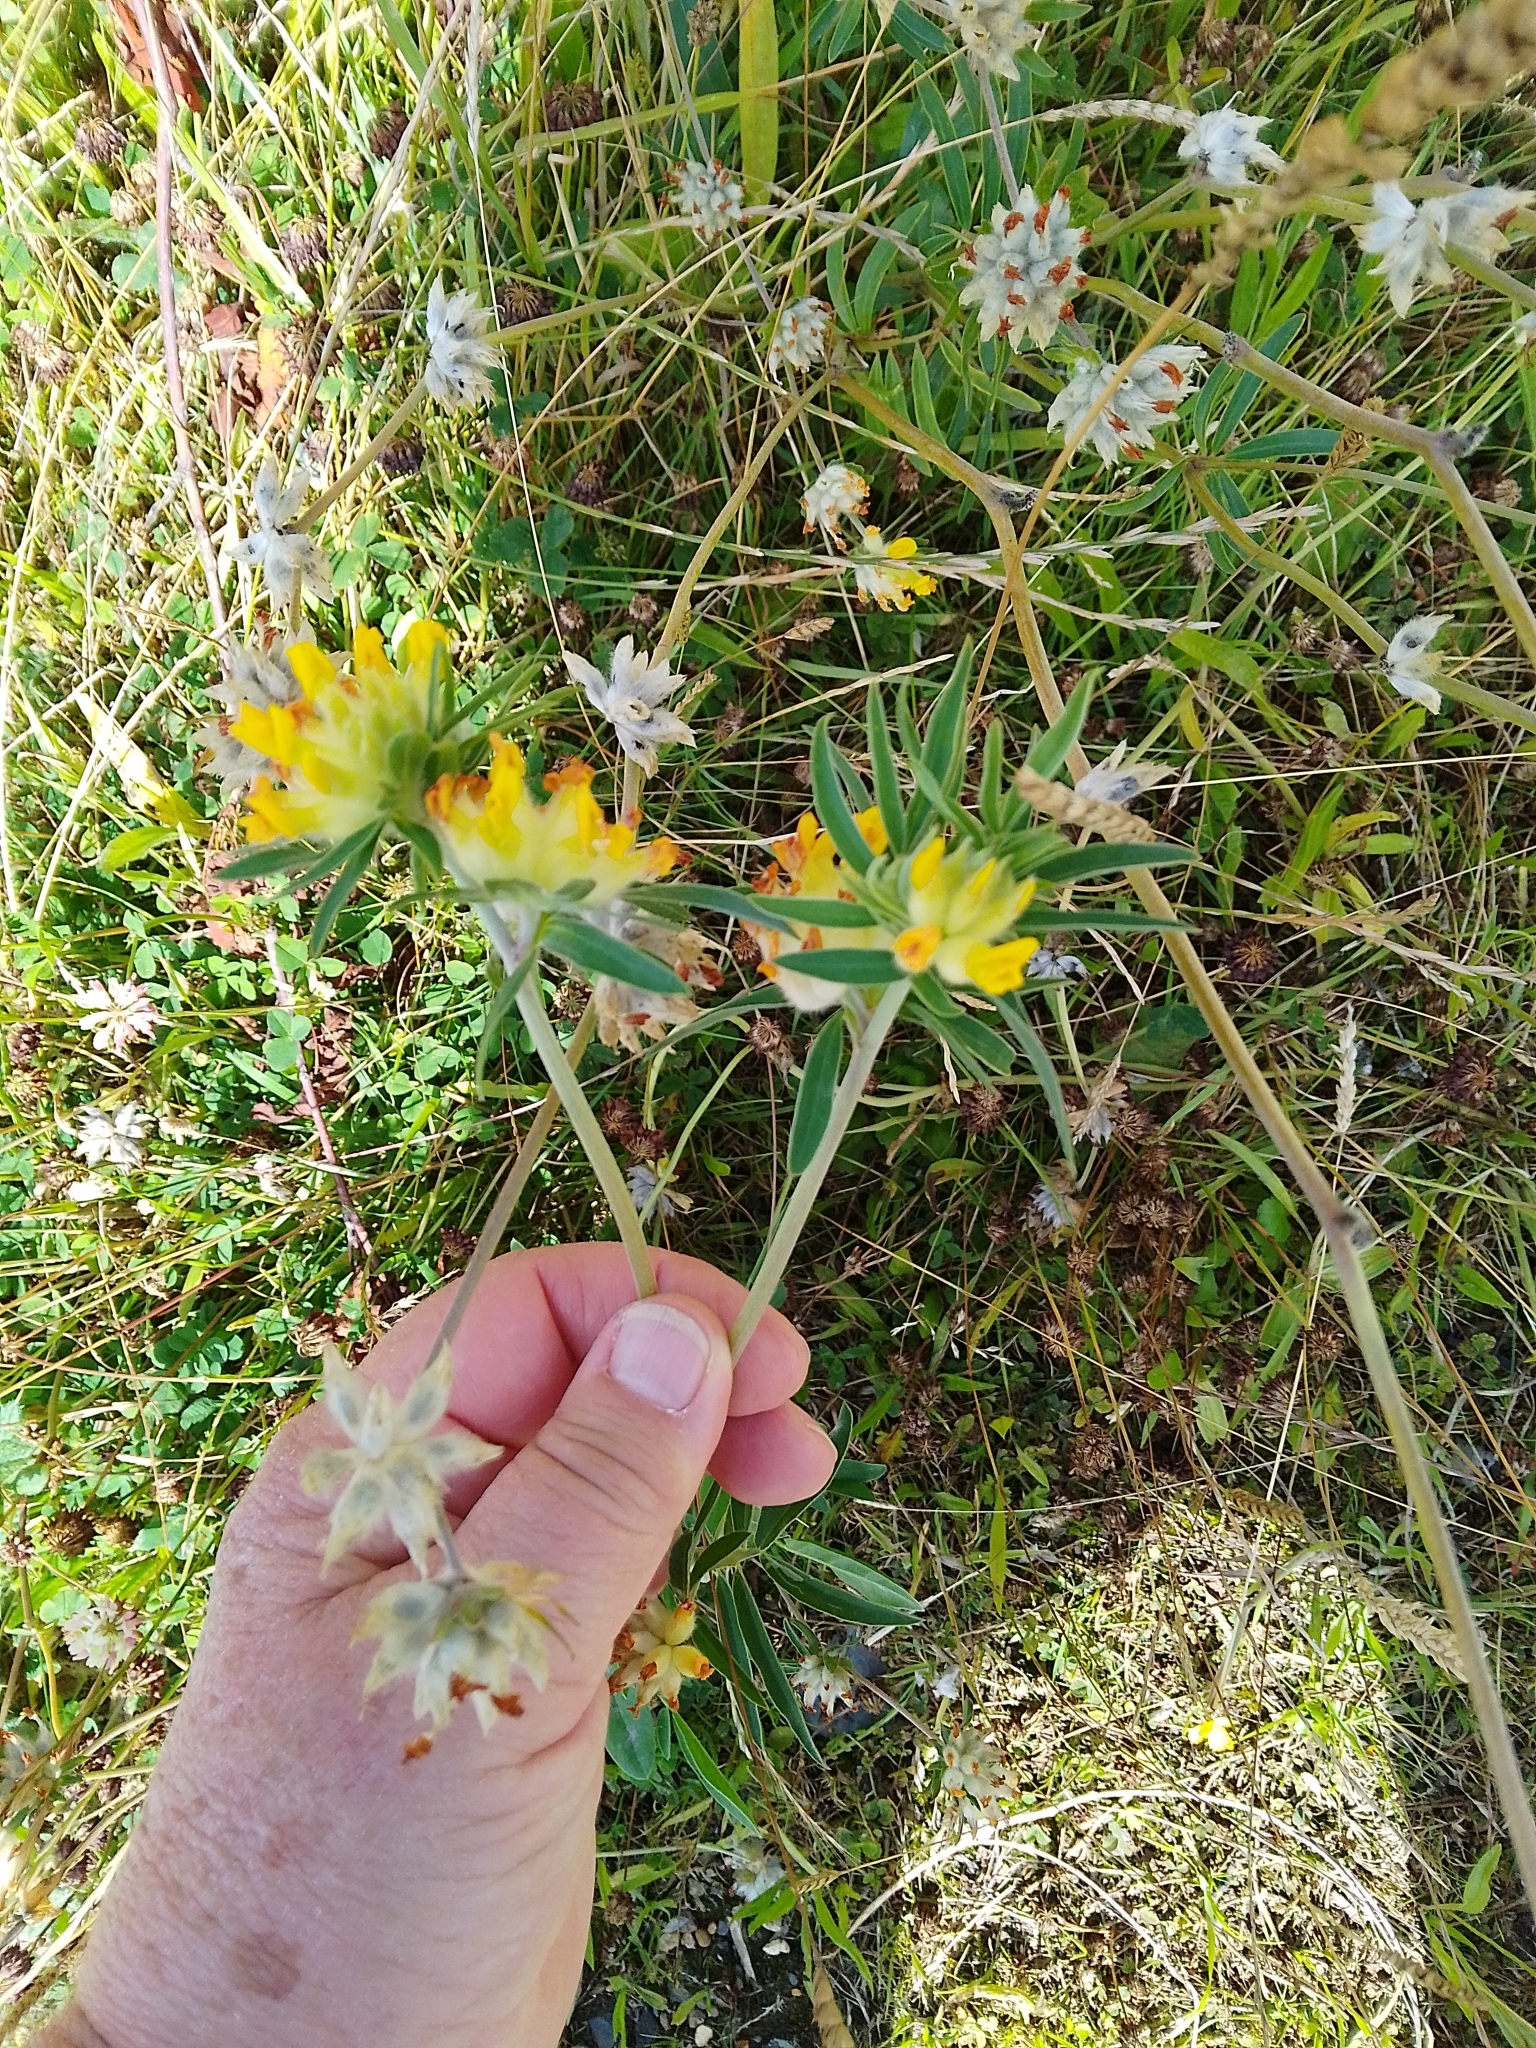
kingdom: Plantae
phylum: Tracheophyta
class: Magnoliopsida
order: Fabales
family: Fabaceae
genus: Anthyllis
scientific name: Anthyllis vulneraria
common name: Kidney vetch
